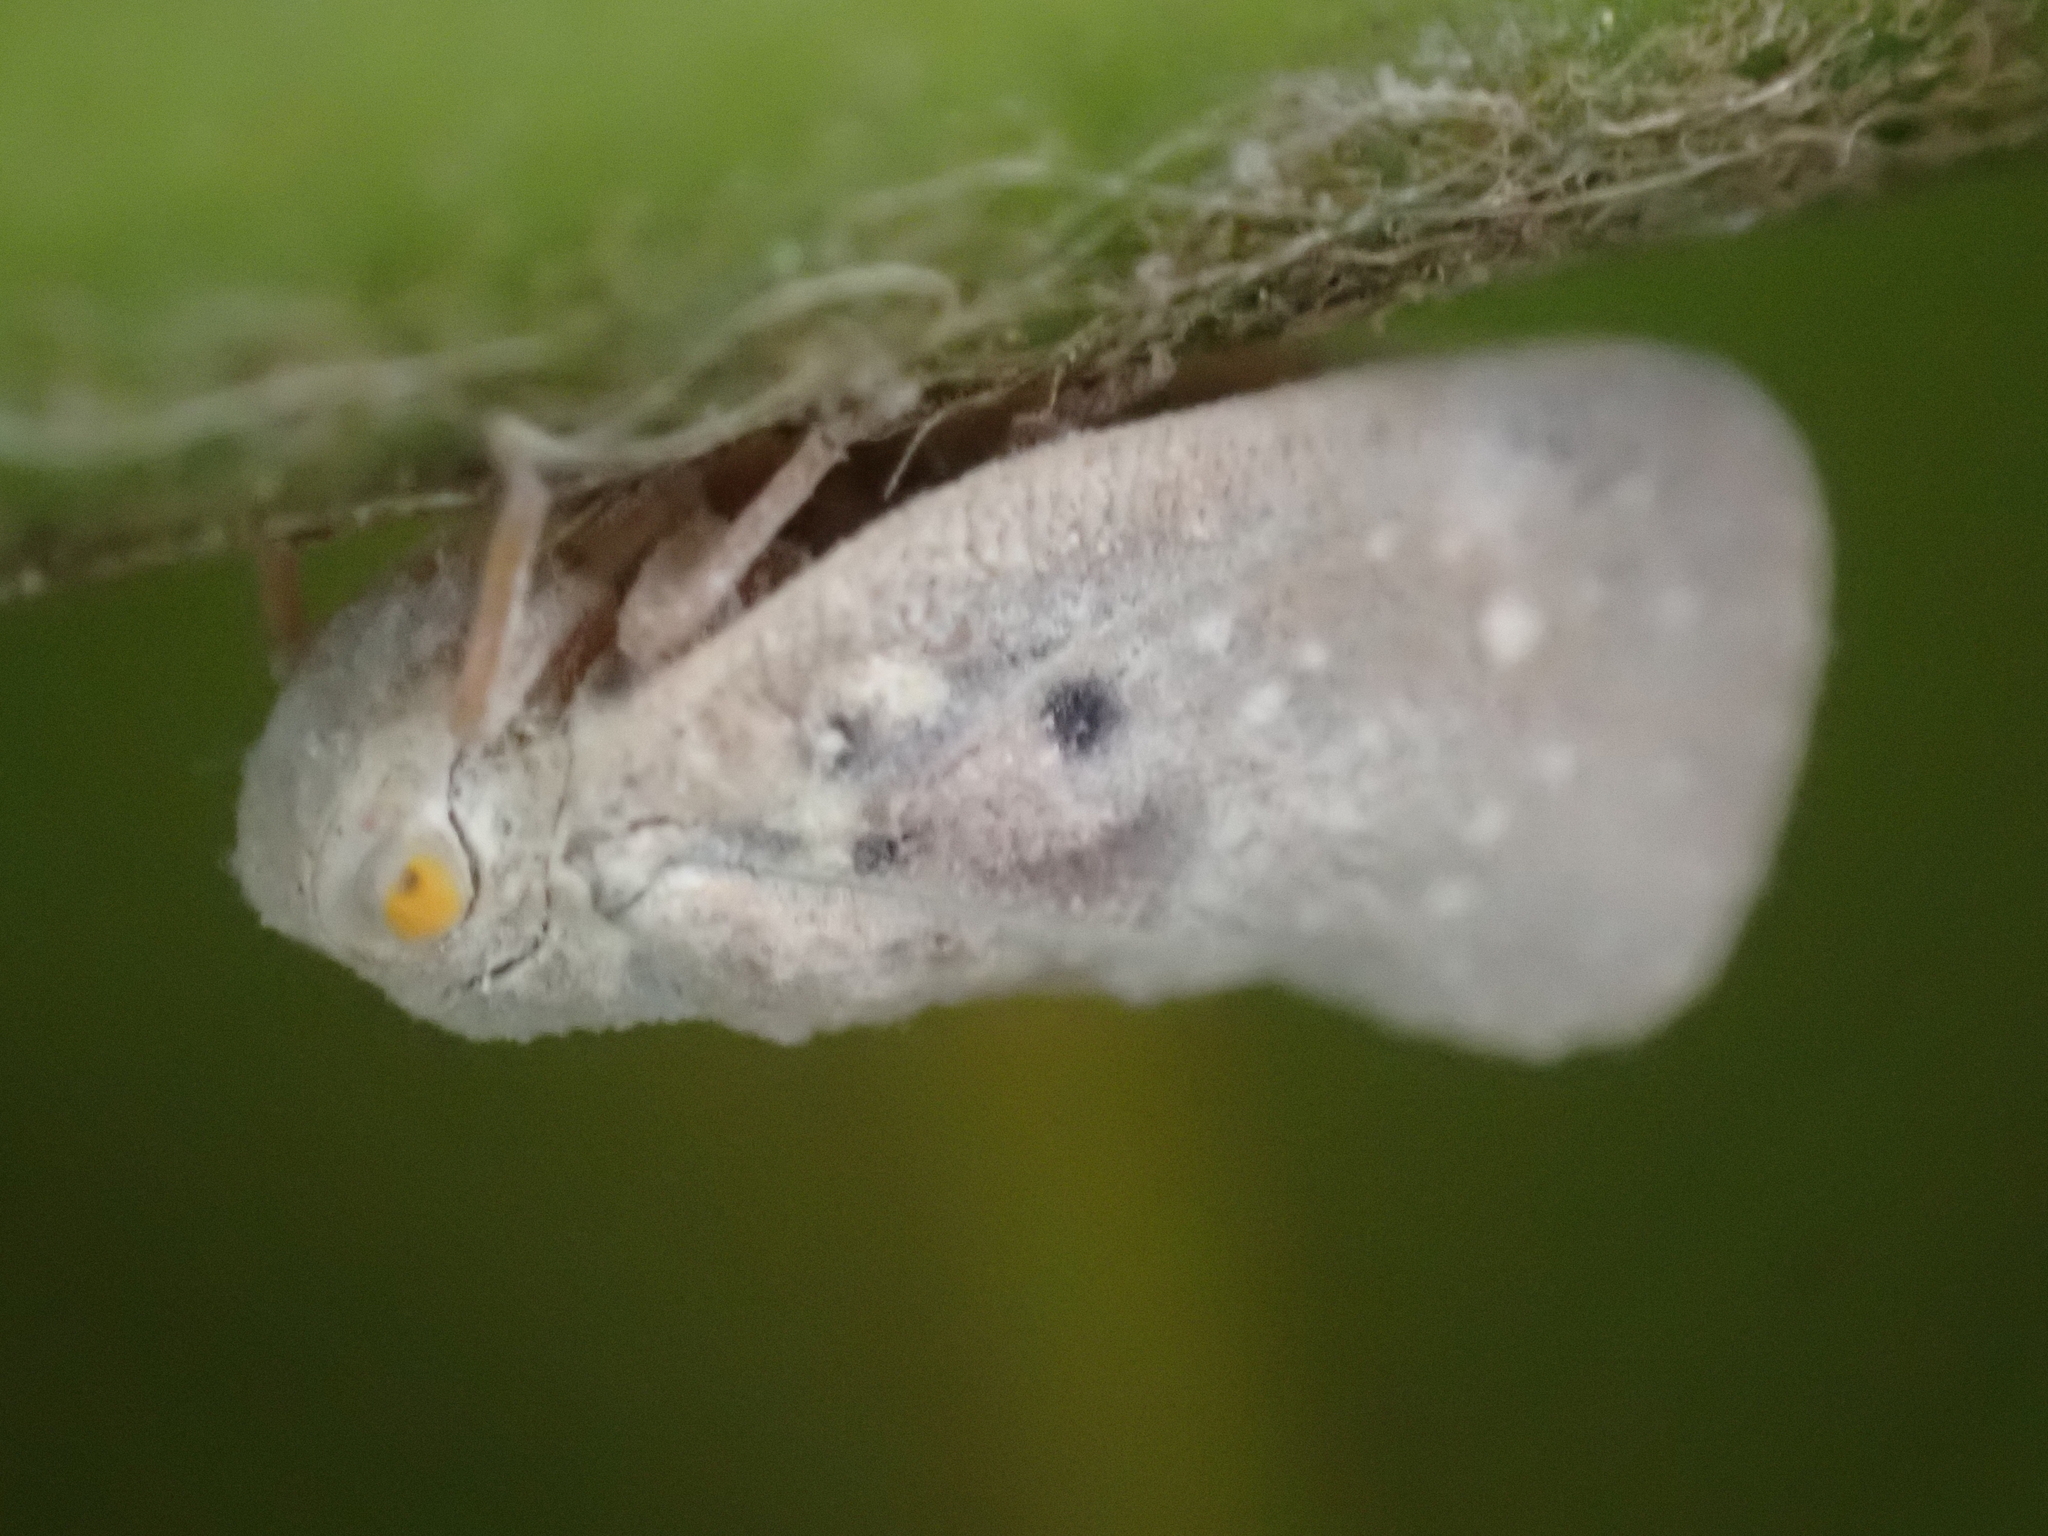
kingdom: Animalia
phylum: Arthropoda
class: Insecta
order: Hemiptera
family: Flatidae
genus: Metcalfa
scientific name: Metcalfa pruinosa
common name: Citrus flatid planthopper
